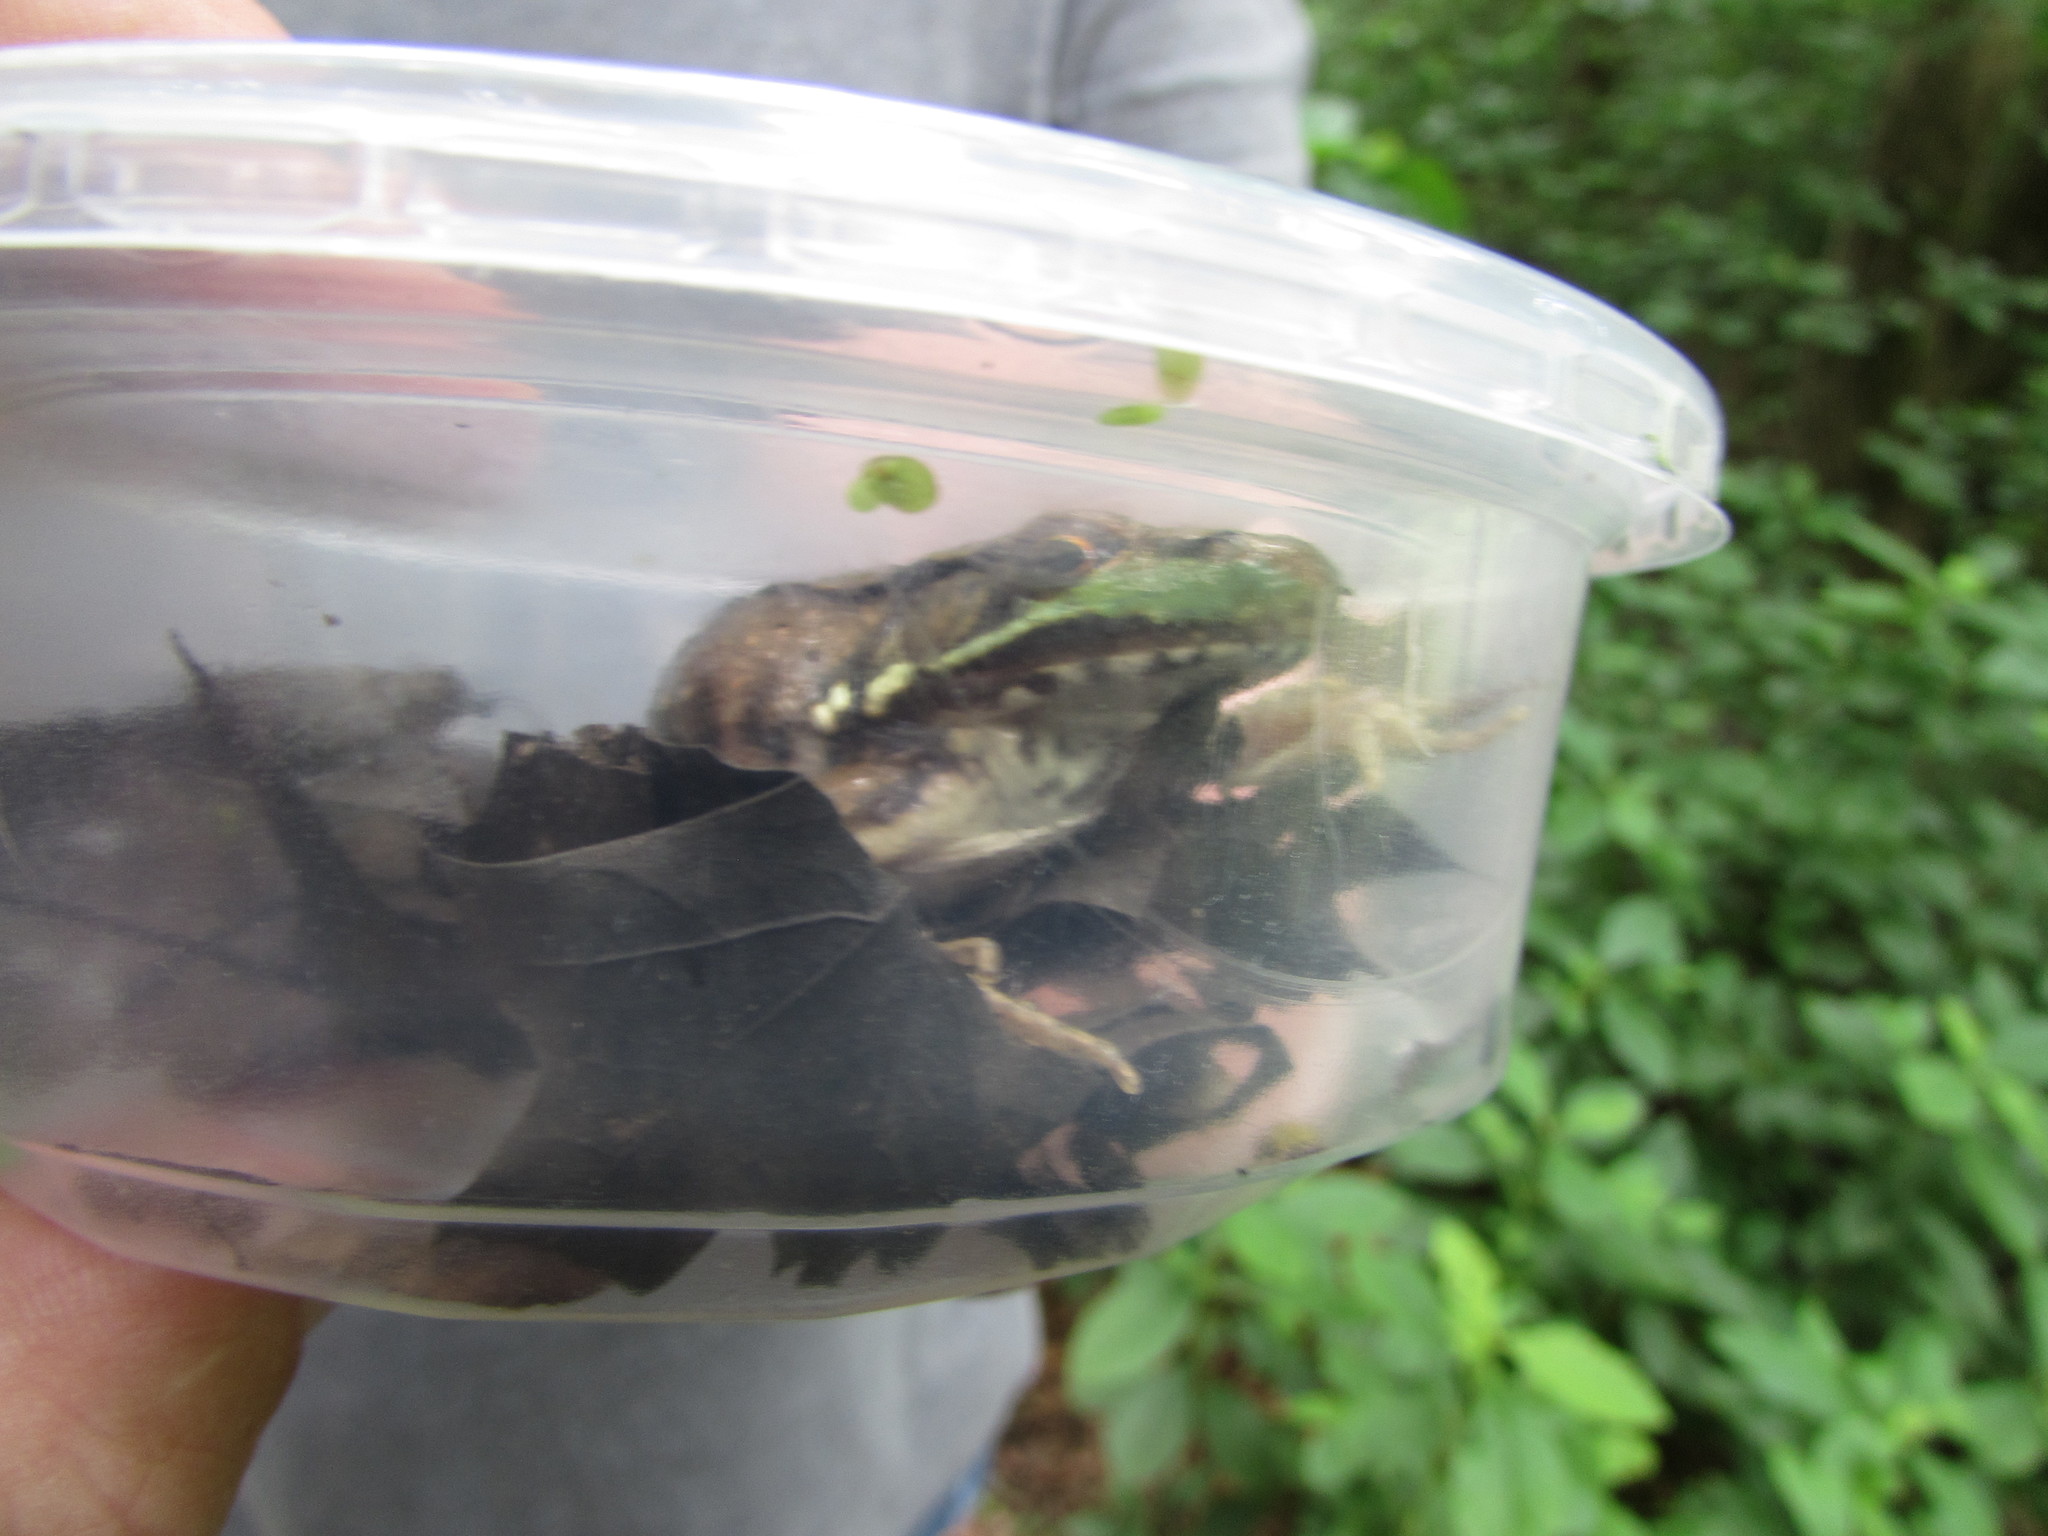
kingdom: Animalia
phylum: Chordata
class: Amphibia
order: Anura
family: Ranidae
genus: Lithobates
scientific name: Lithobates clamitans
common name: Green frog
